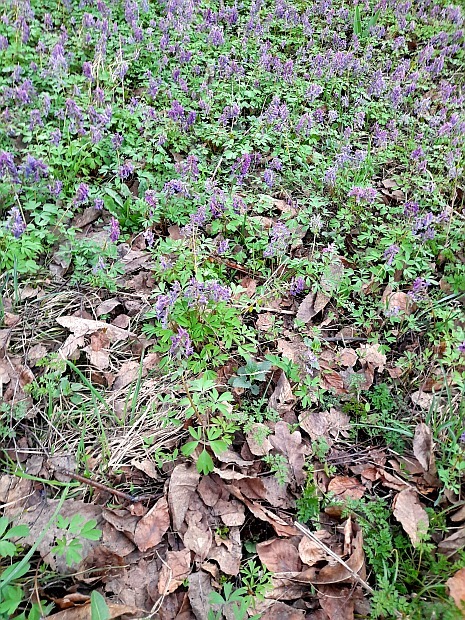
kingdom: Plantae
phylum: Tracheophyta
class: Magnoliopsida
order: Ranunculales
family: Papaveraceae
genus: Corydalis
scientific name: Corydalis solida
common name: Bird-in-a-bush
